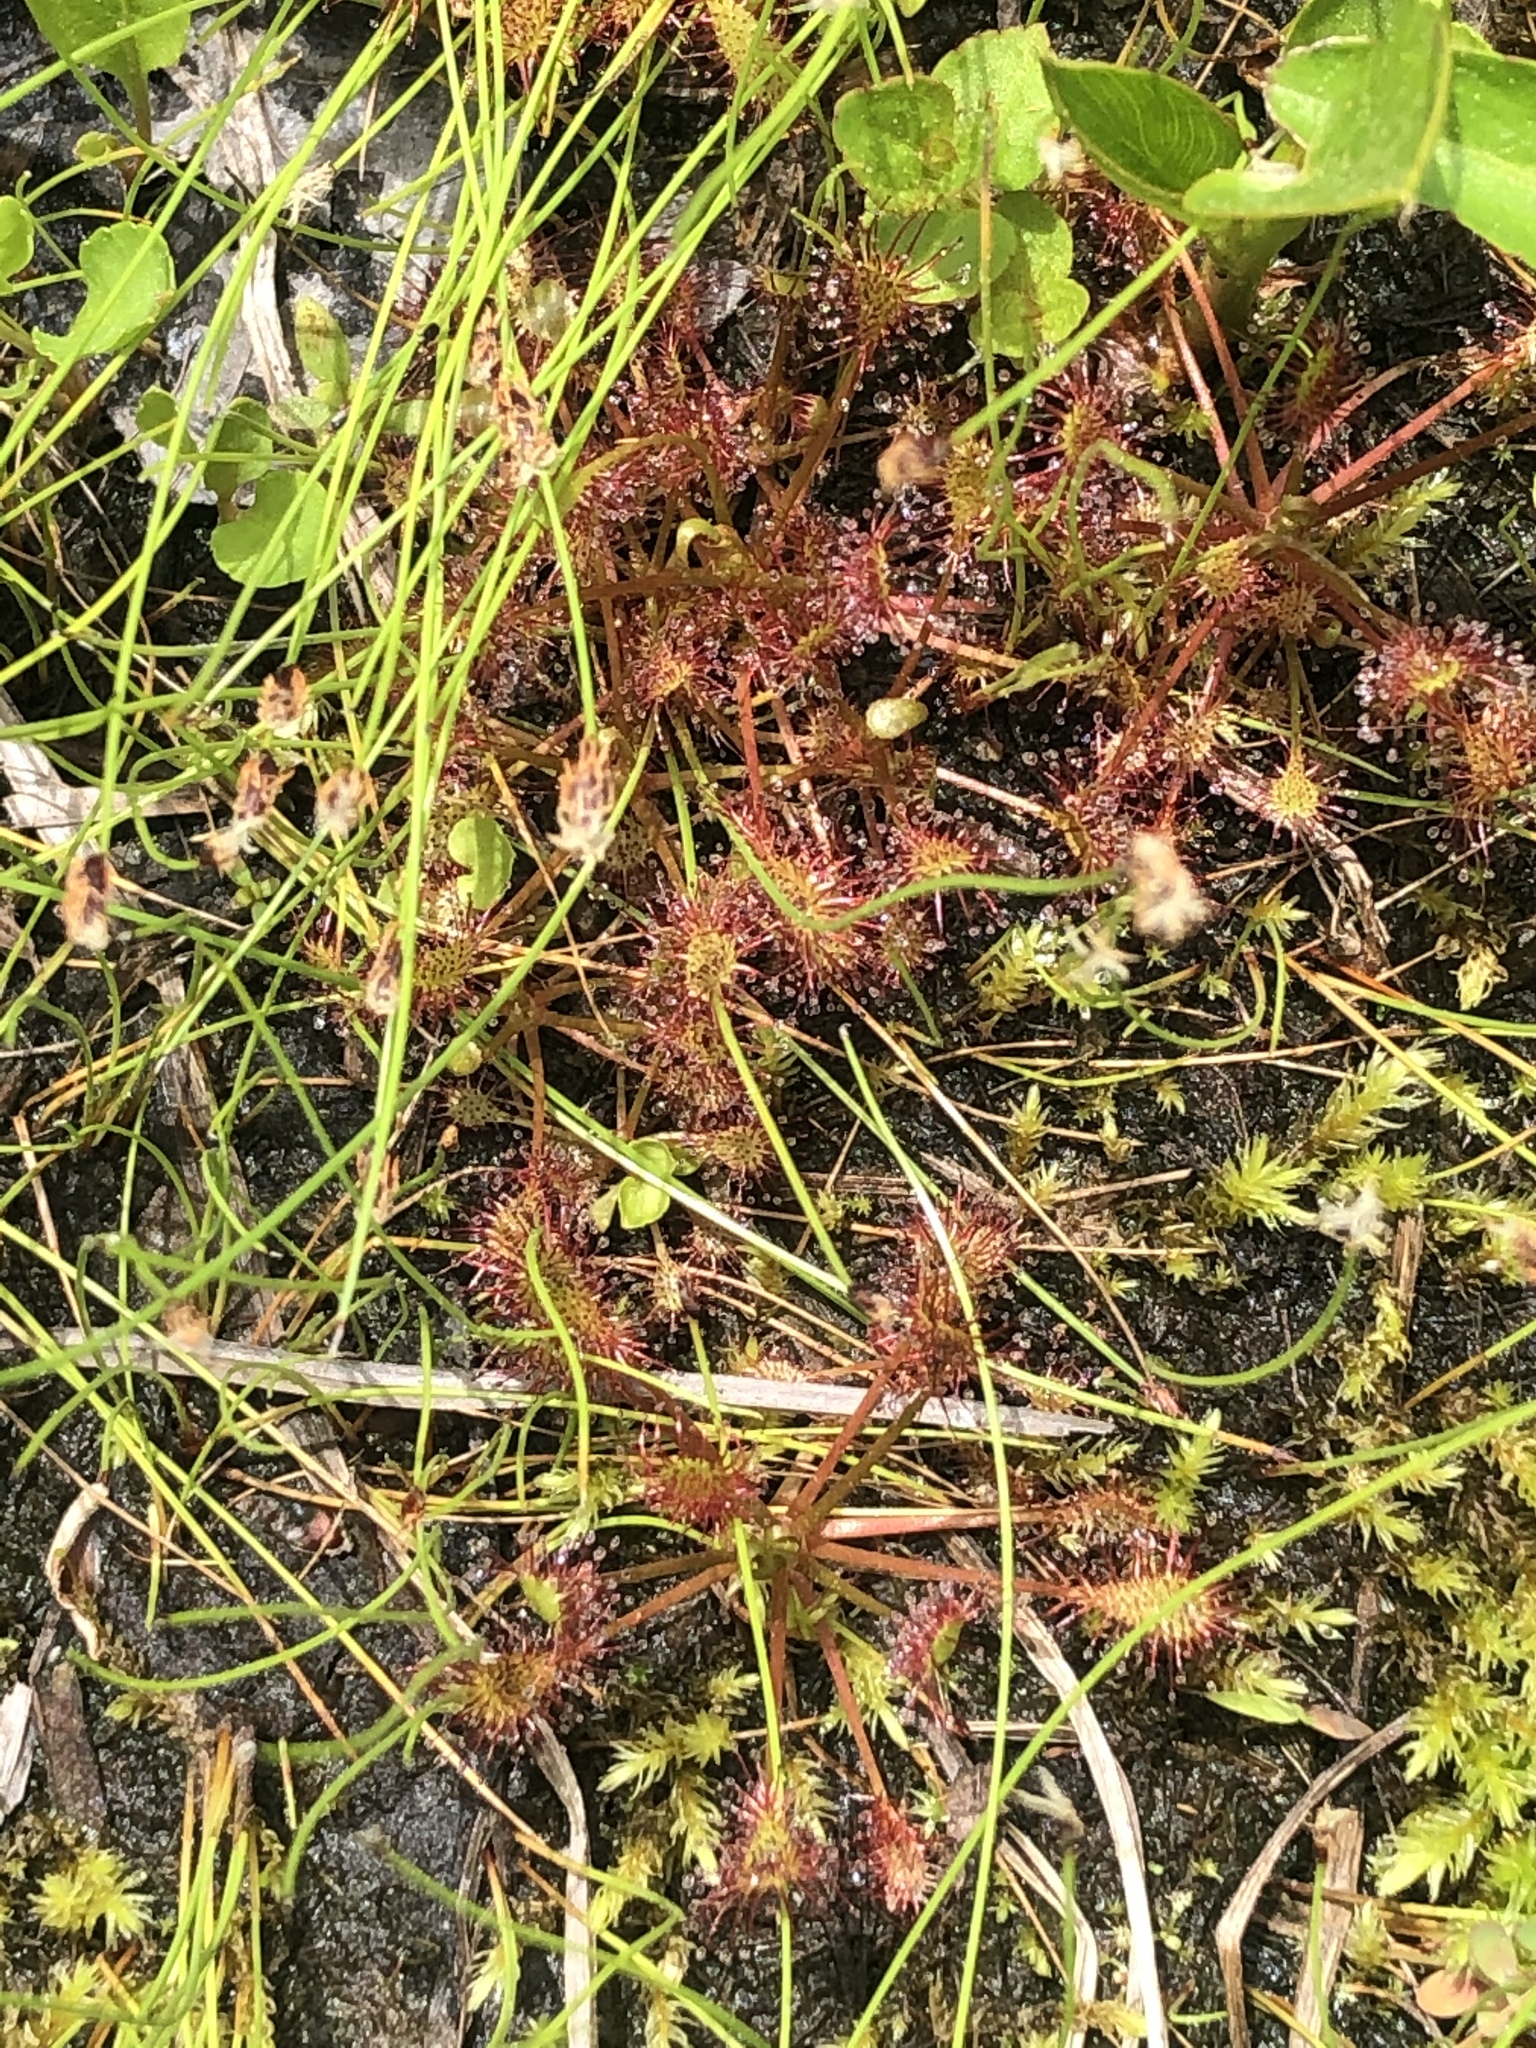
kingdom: Plantae
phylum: Tracheophyta
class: Magnoliopsida
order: Caryophyllales
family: Droseraceae
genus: Drosera
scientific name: Drosera intermedia
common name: Oblong-leaved sundew
